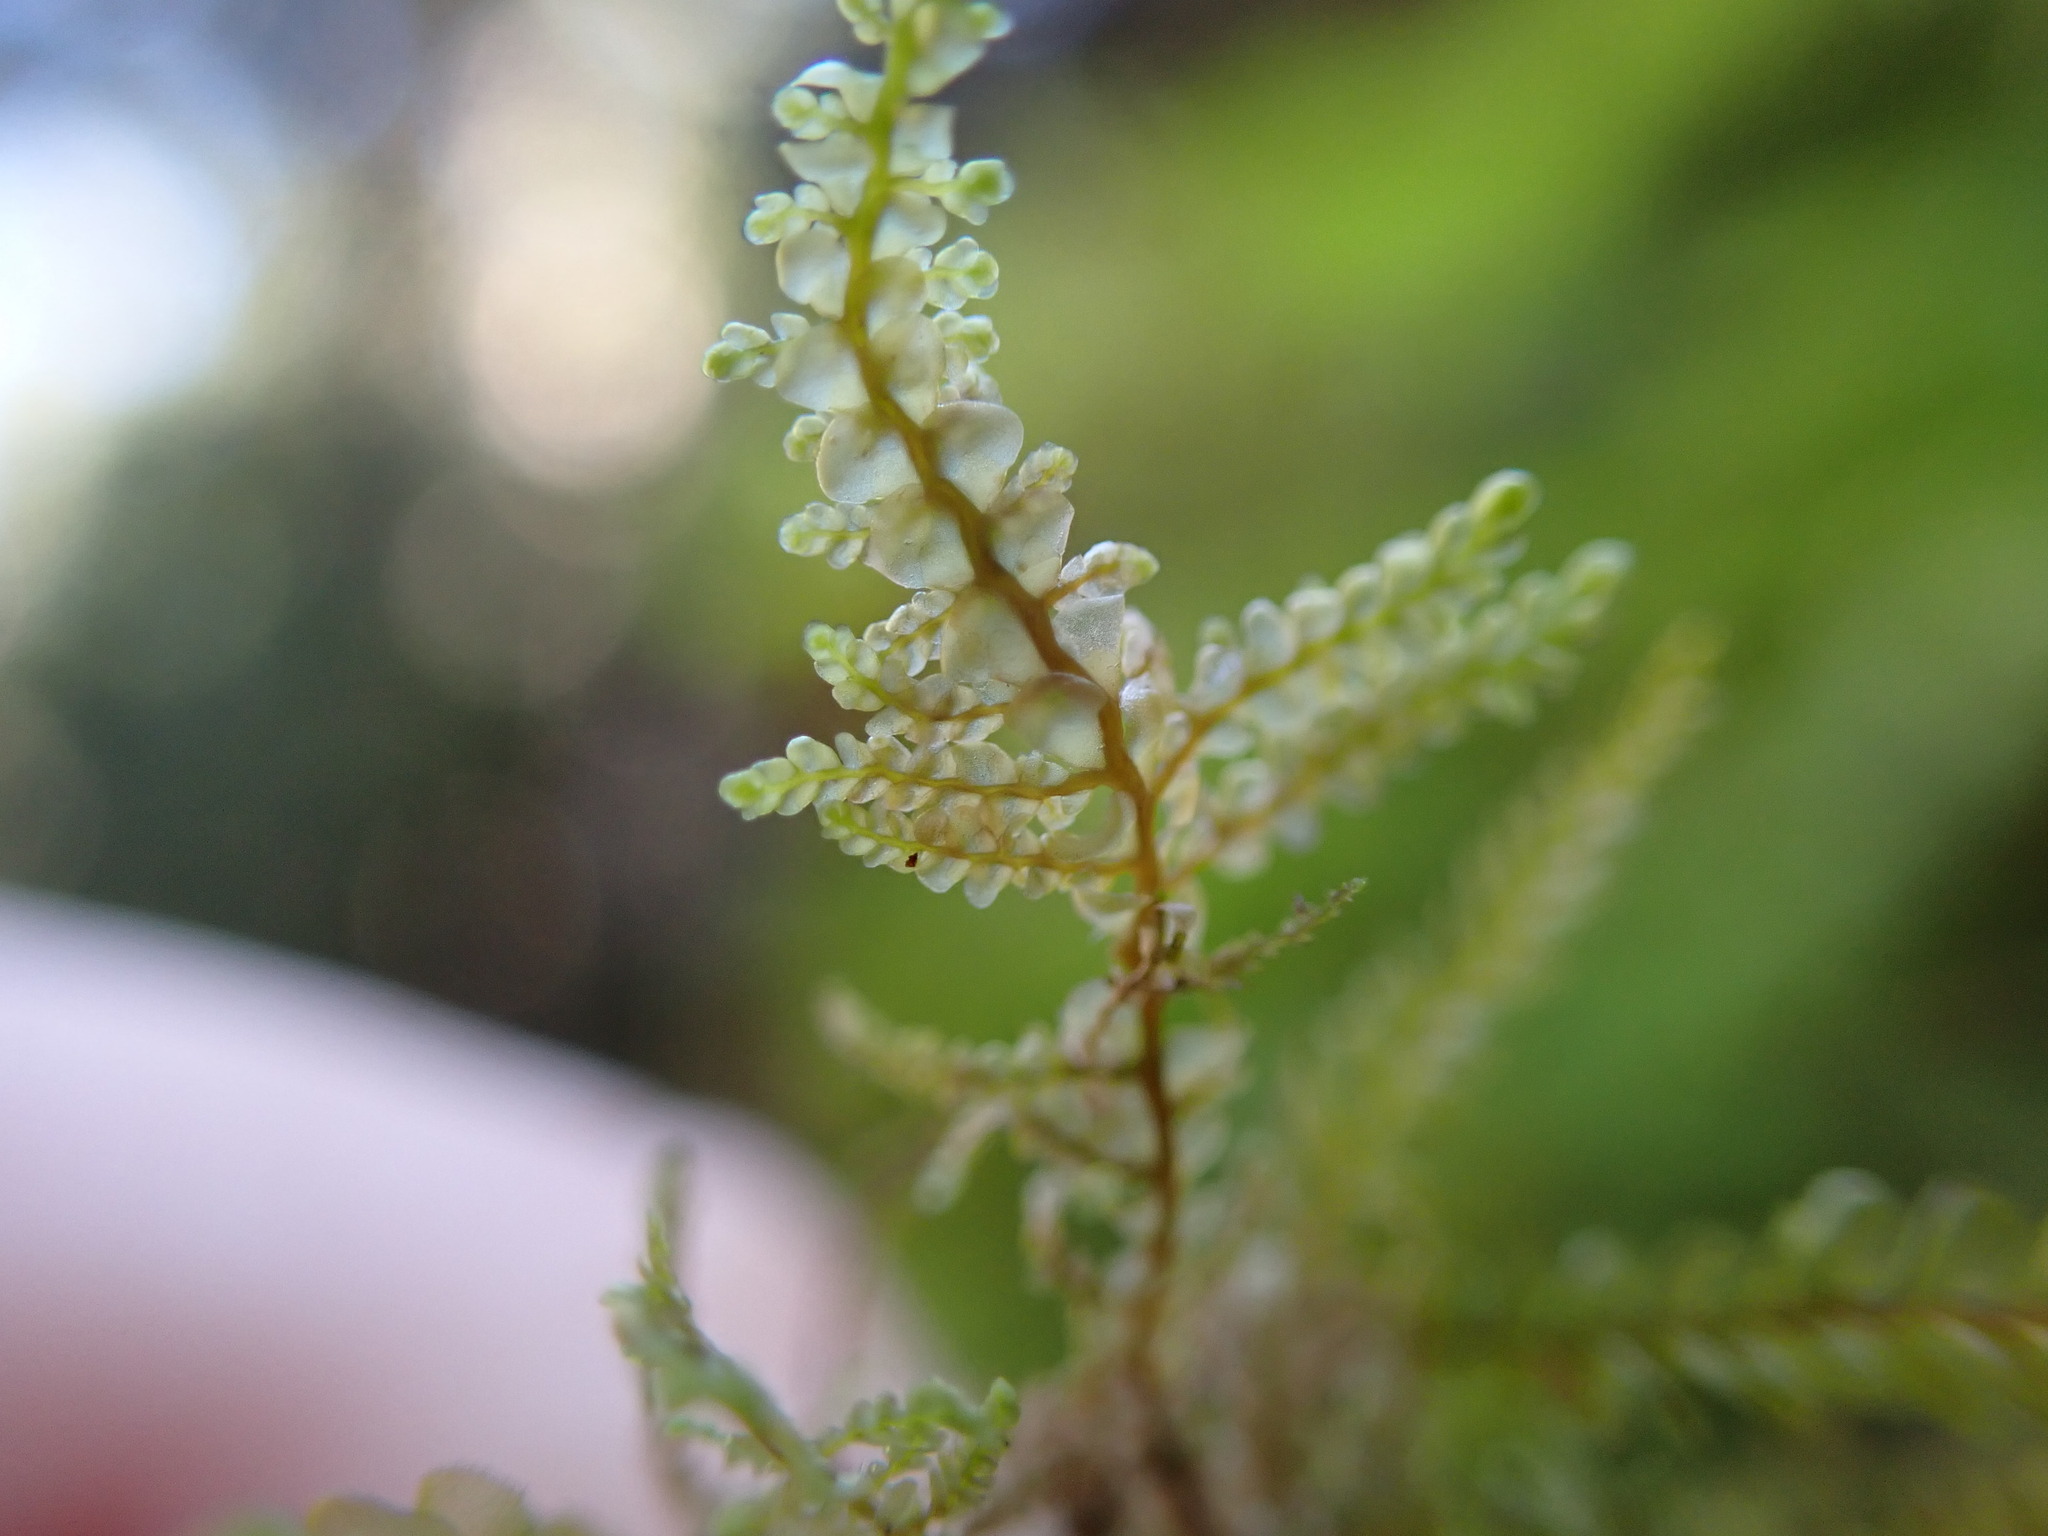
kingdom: Plantae
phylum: Marchantiophyta
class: Jungermanniopsida
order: Porellales
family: Radulaceae
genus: Radula
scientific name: Radula obtusiloba
